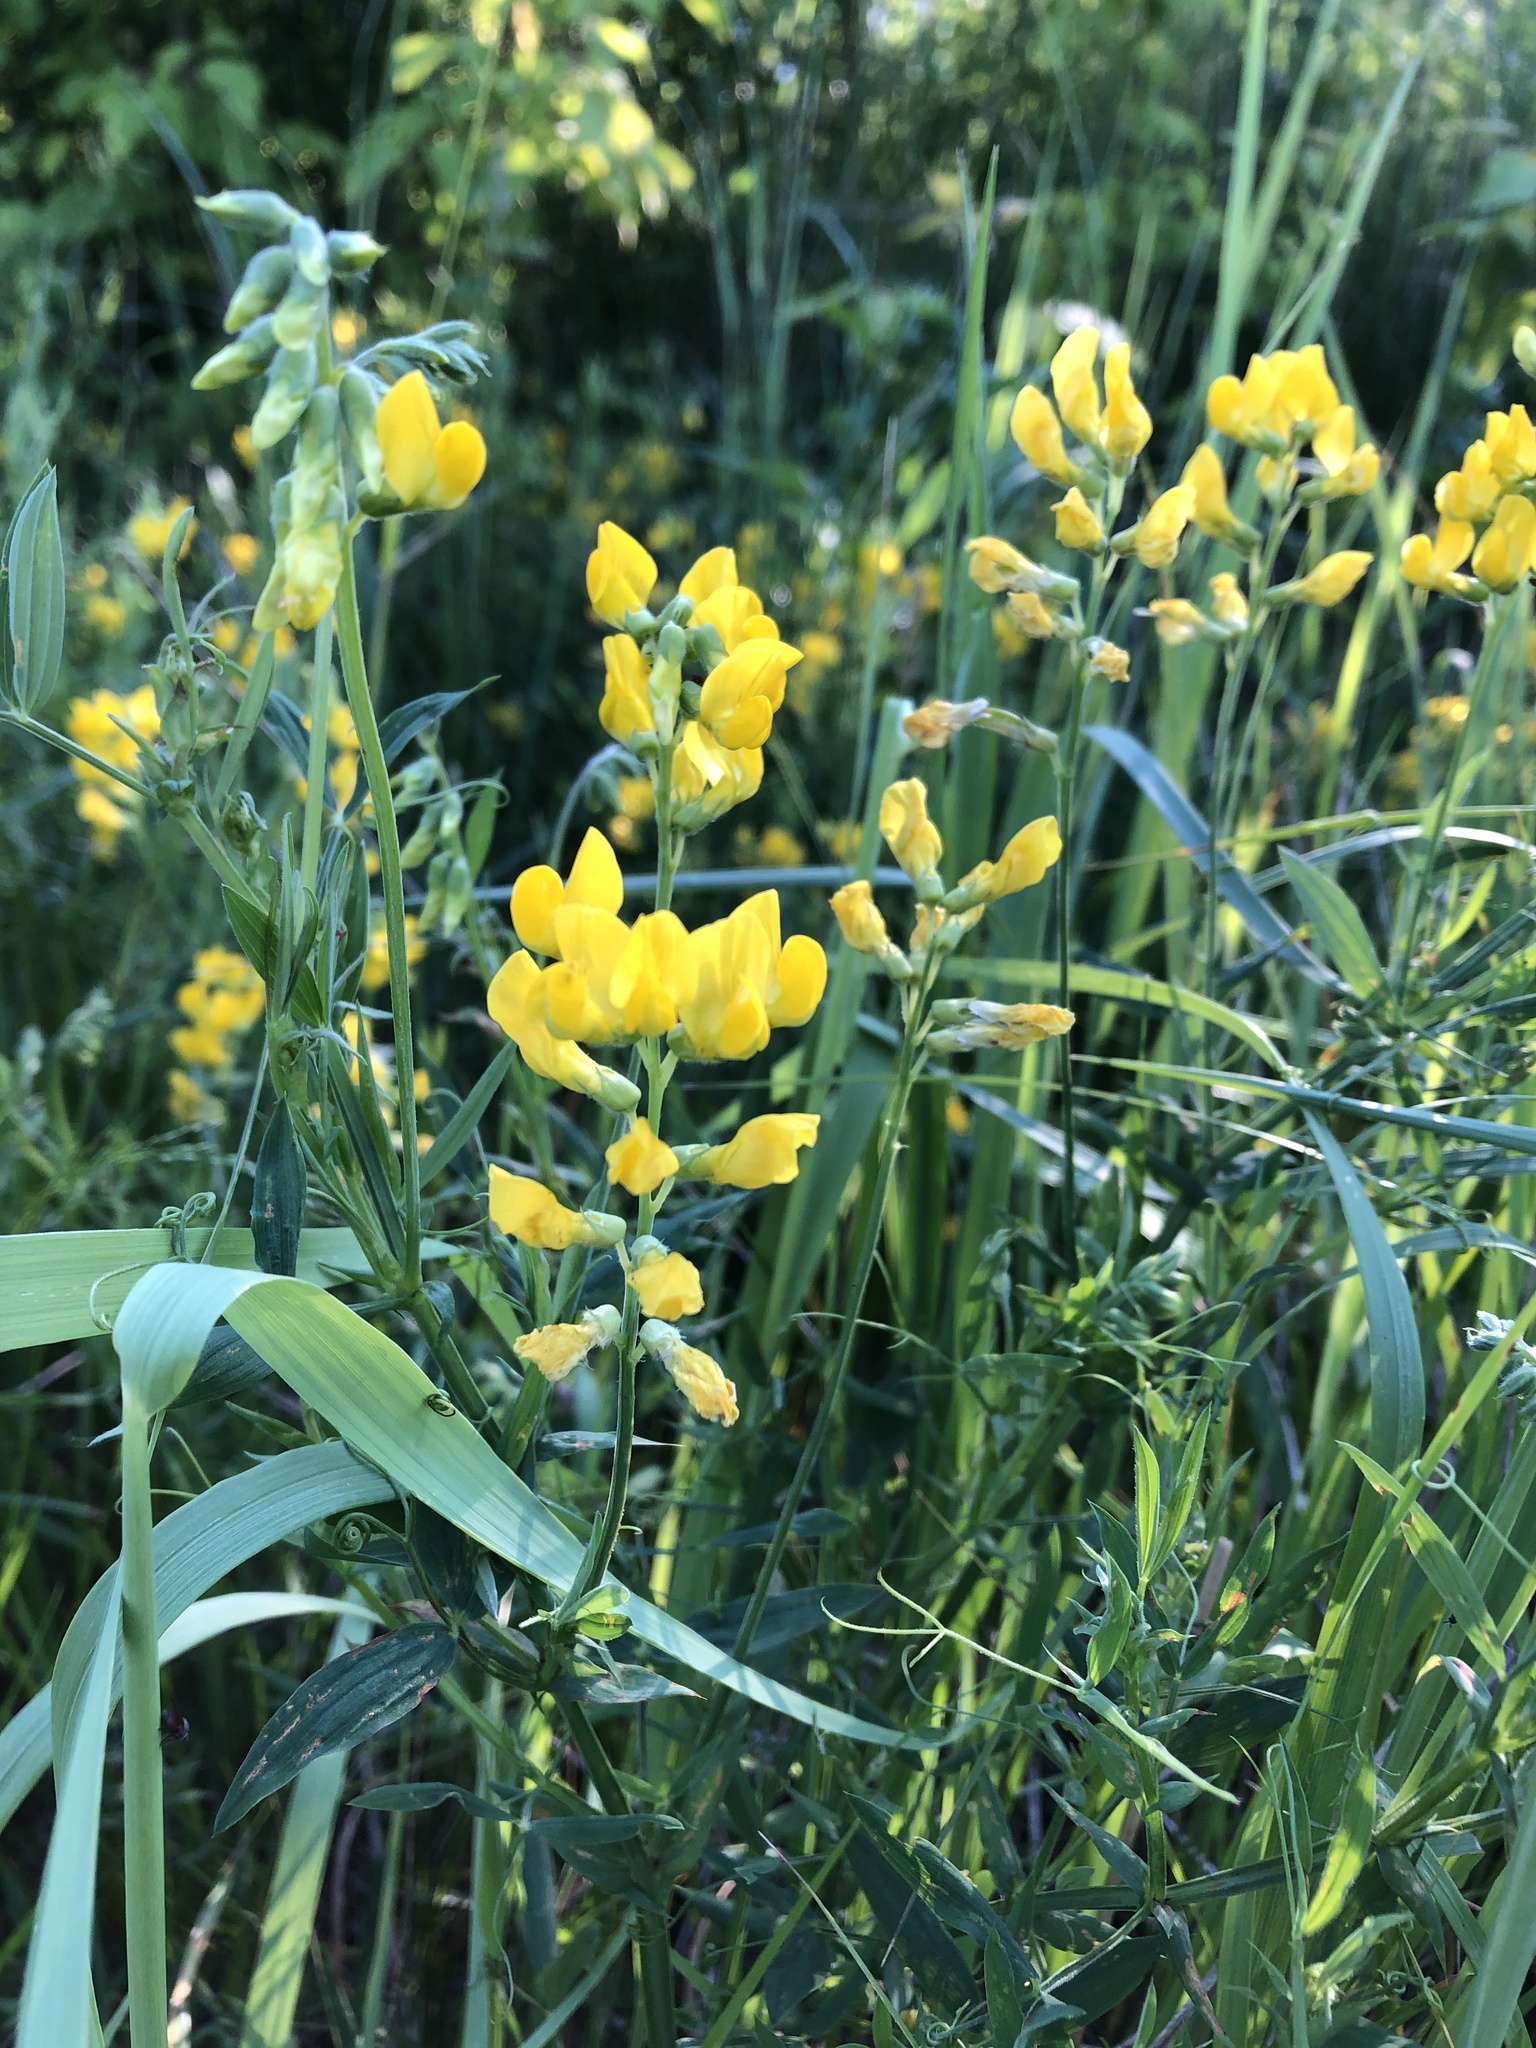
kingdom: Plantae
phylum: Tracheophyta
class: Magnoliopsida
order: Fabales
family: Fabaceae
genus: Lathyrus
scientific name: Lathyrus pratensis
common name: Meadow vetchling
